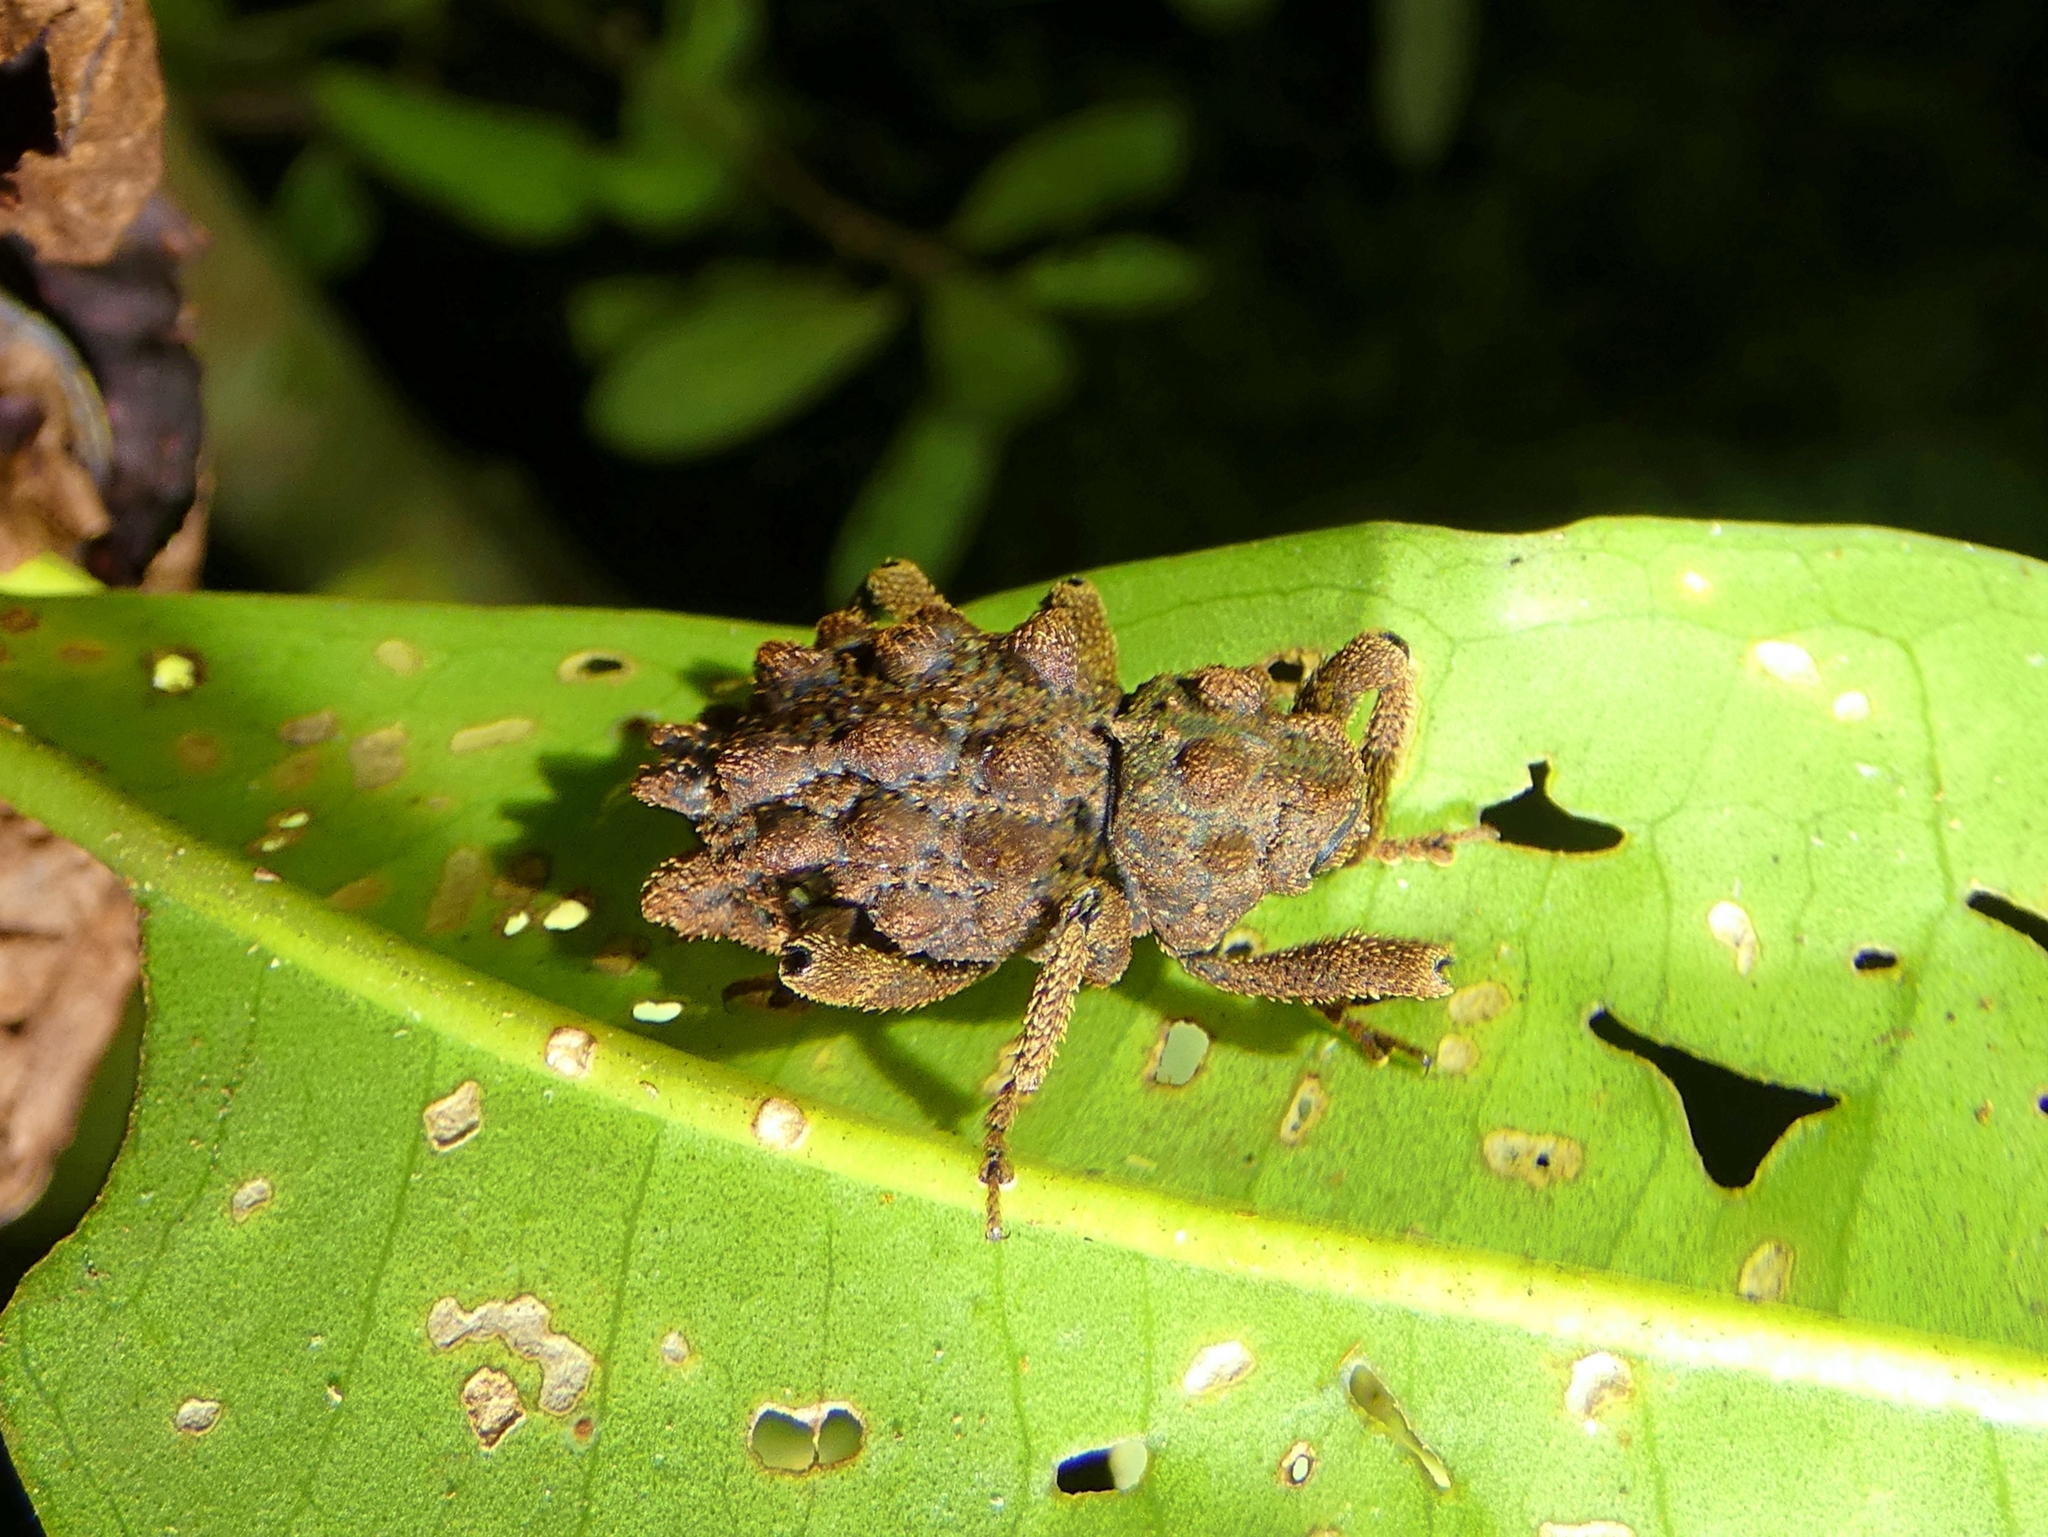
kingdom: Animalia
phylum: Arthropoda
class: Insecta
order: Coleoptera
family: Curculionidae
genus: Poropterus
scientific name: Poropterus intermedius
